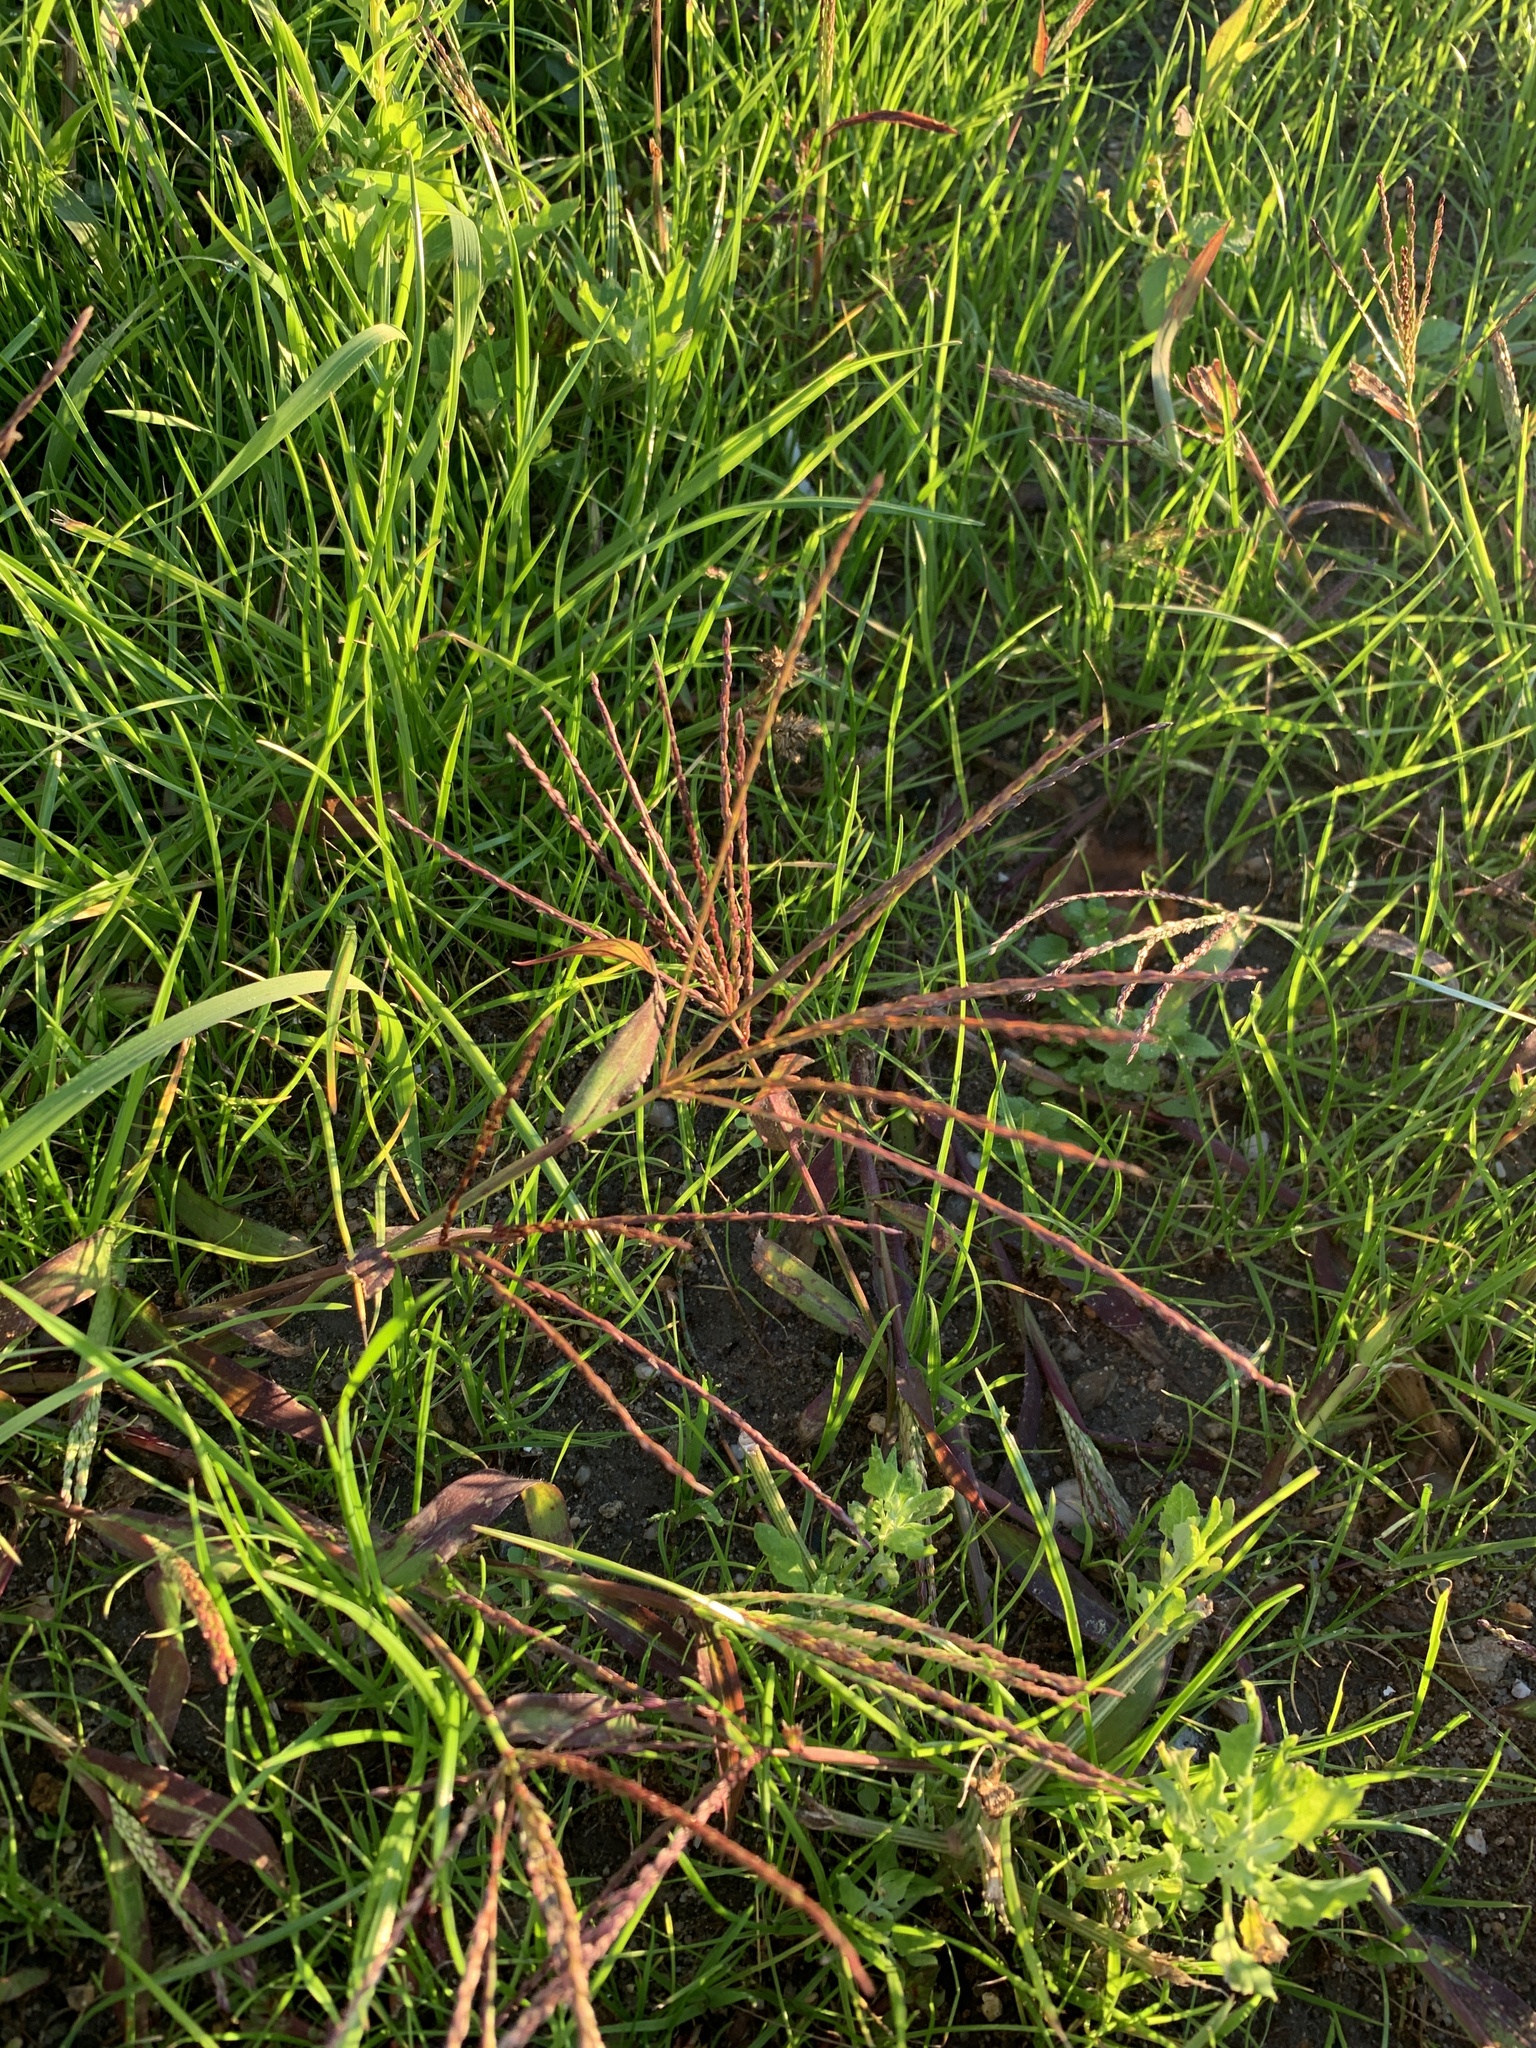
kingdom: Plantae
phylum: Tracheophyta
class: Liliopsida
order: Poales
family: Poaceae
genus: Digitaria
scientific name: Digitaria sanguinalis
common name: Hairy crabgrass
